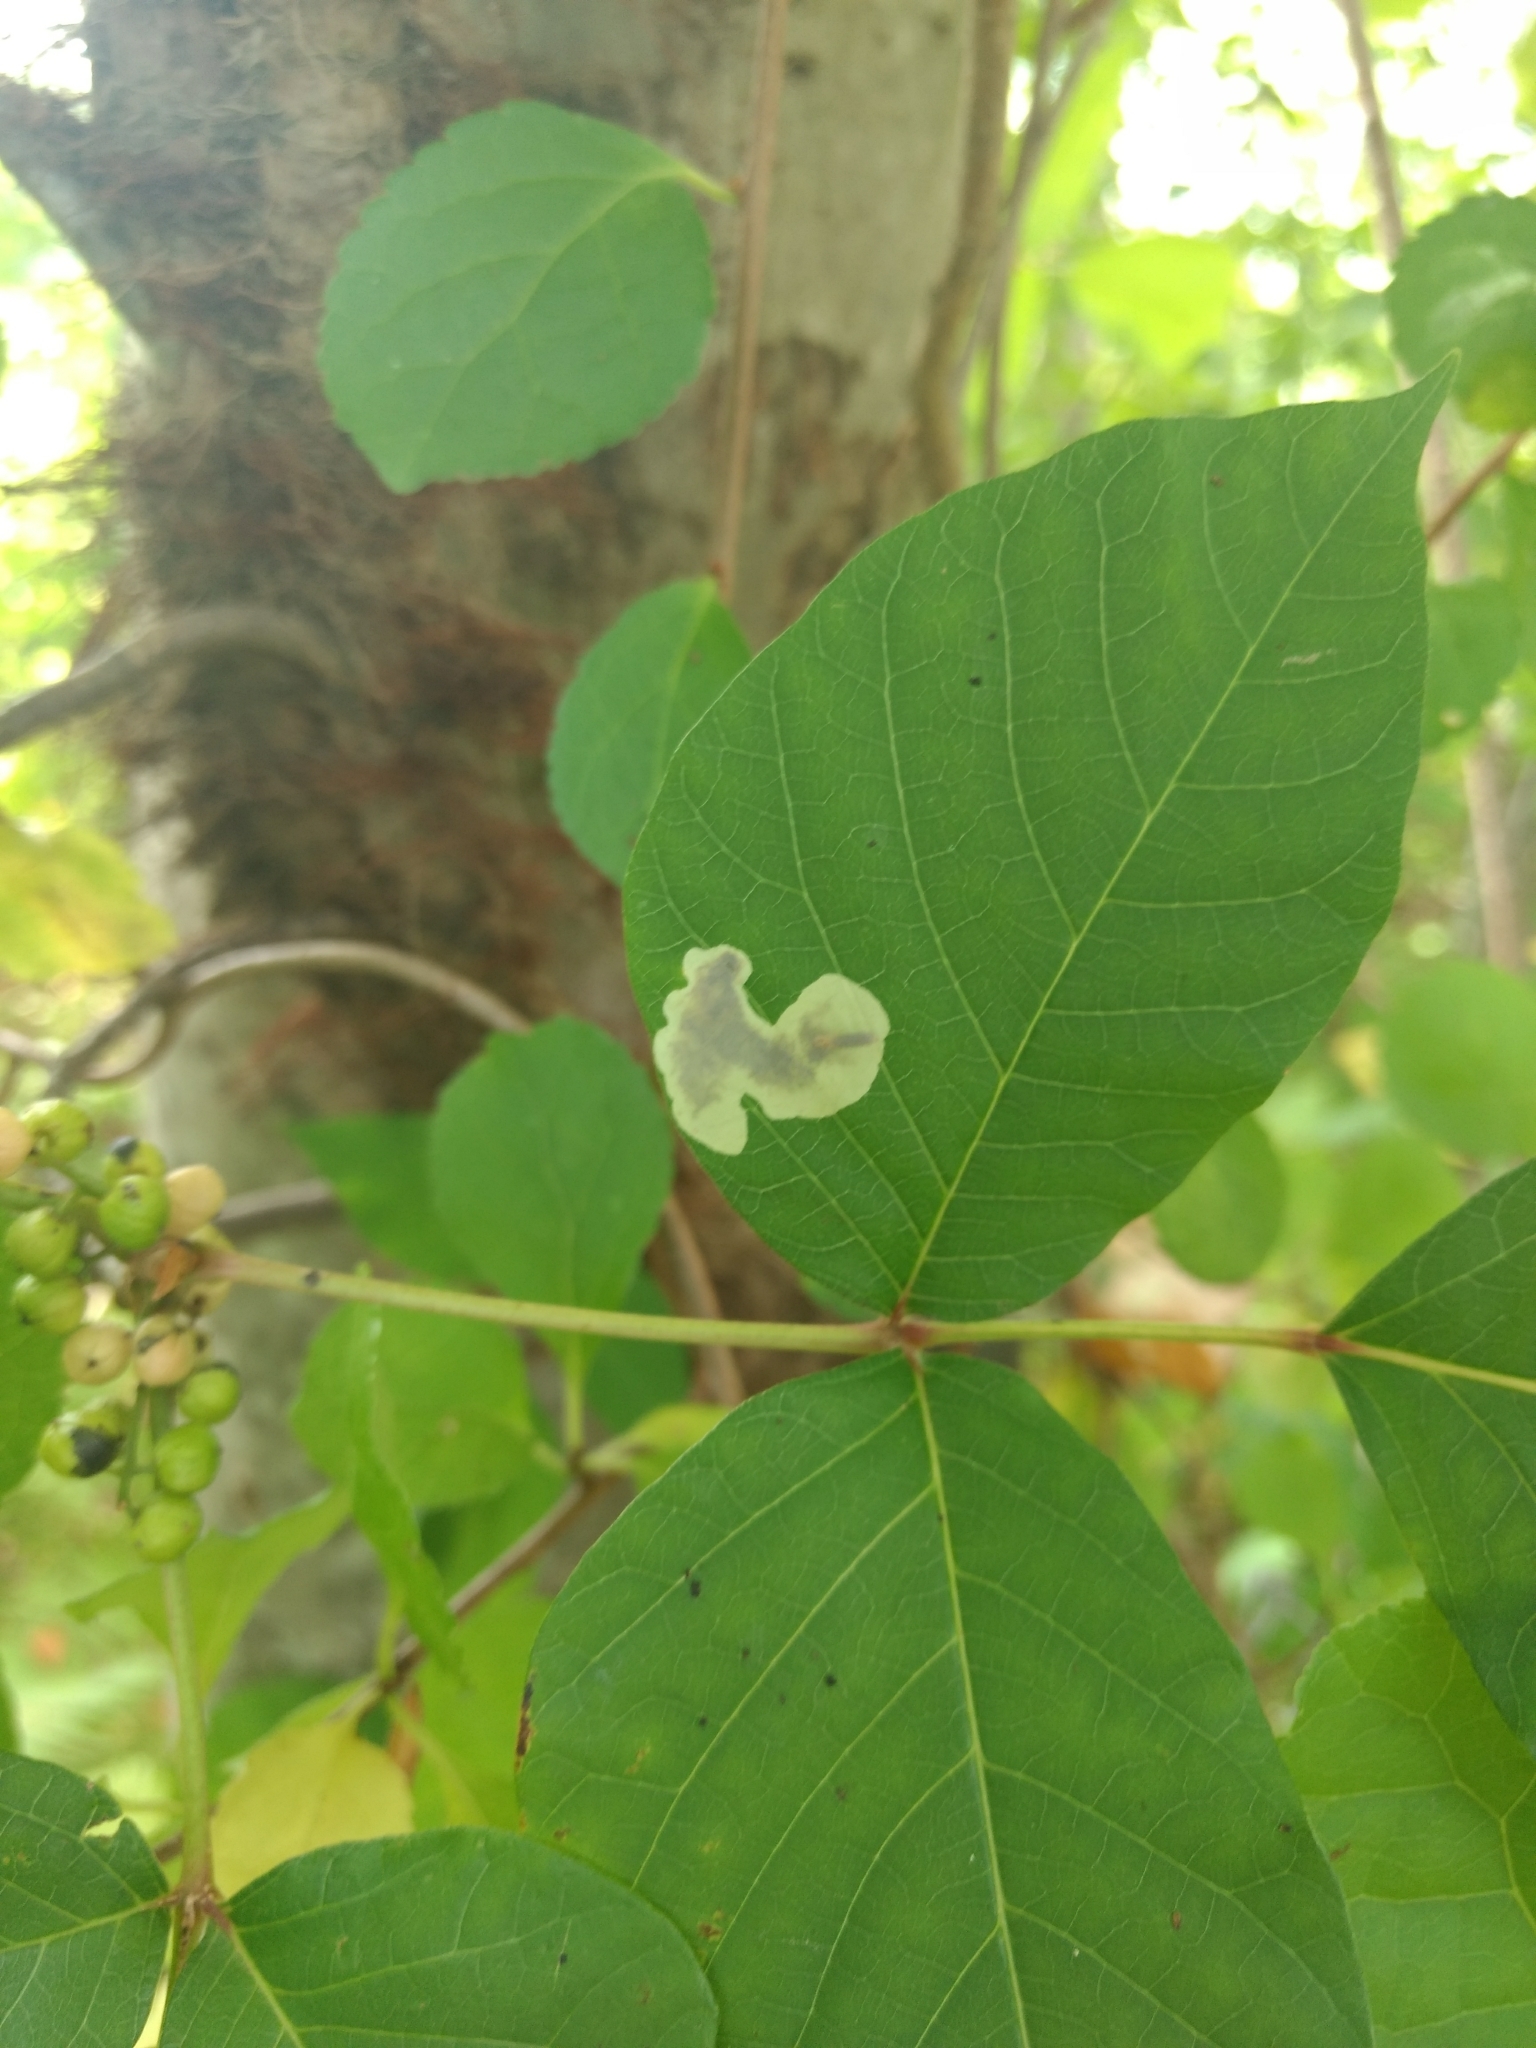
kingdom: Animalia
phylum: Arthropoda
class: Insecta
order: Lepidoptera
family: Gracillariidae
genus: Cameraria
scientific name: Cameraria guttifinitella
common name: Poison ivy leaf-miner moth
